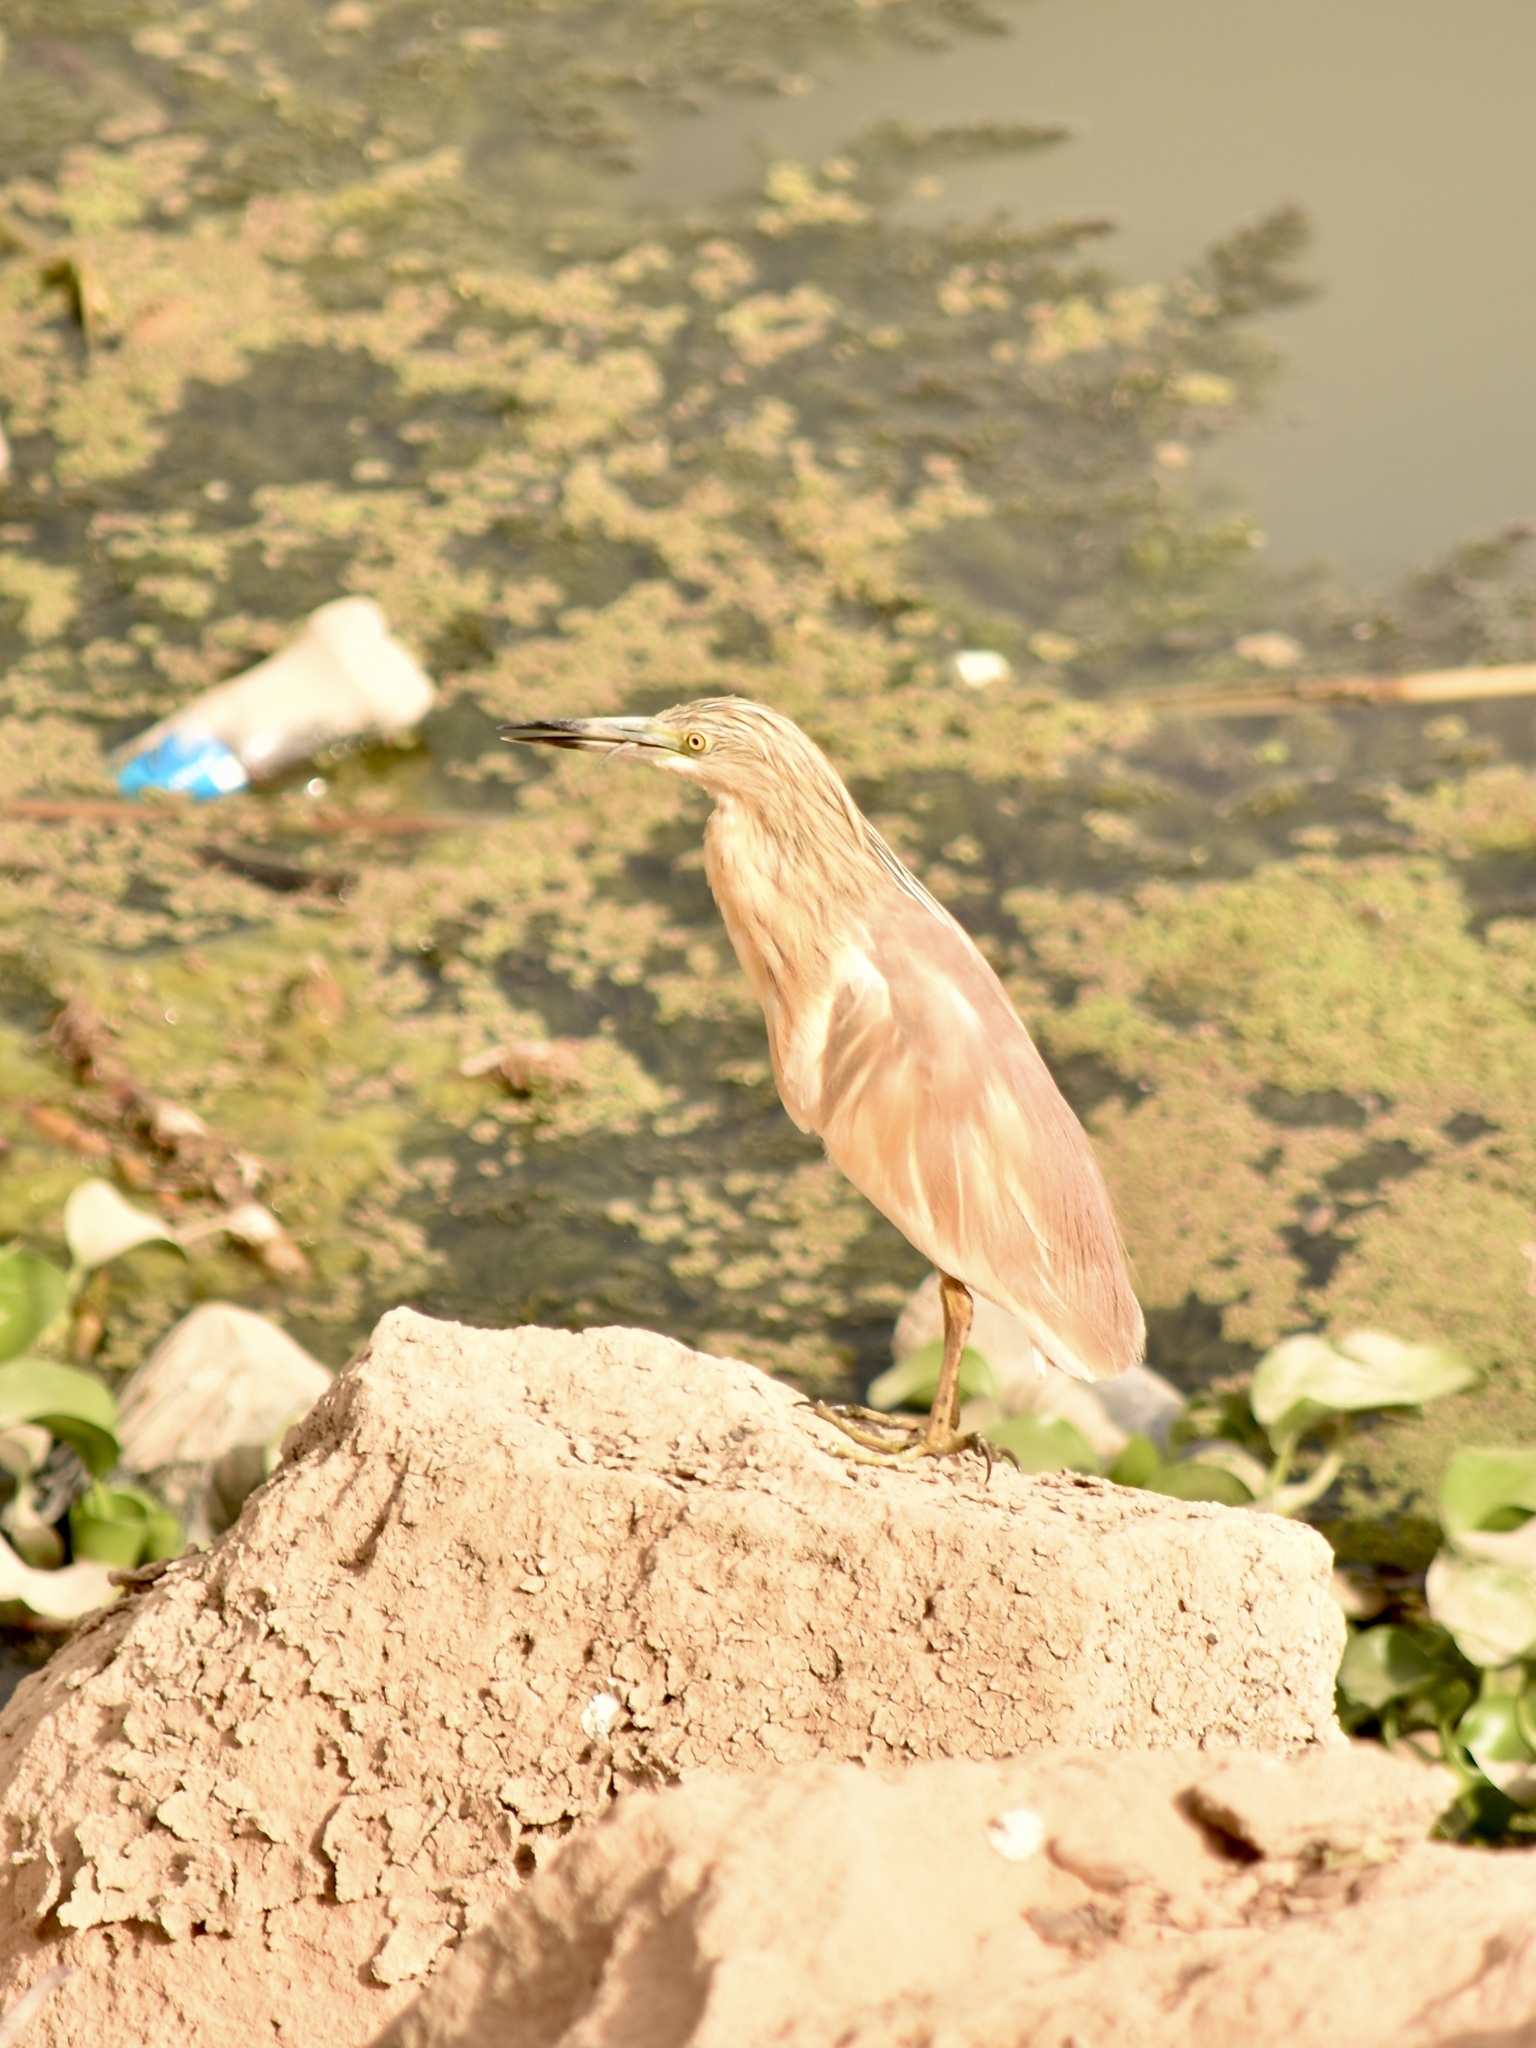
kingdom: Animalia
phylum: Chordata
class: Aves
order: Pelecaniformes
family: Ardeidae
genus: Ardeola
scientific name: Ardeola ralloides
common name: Squacco heron
